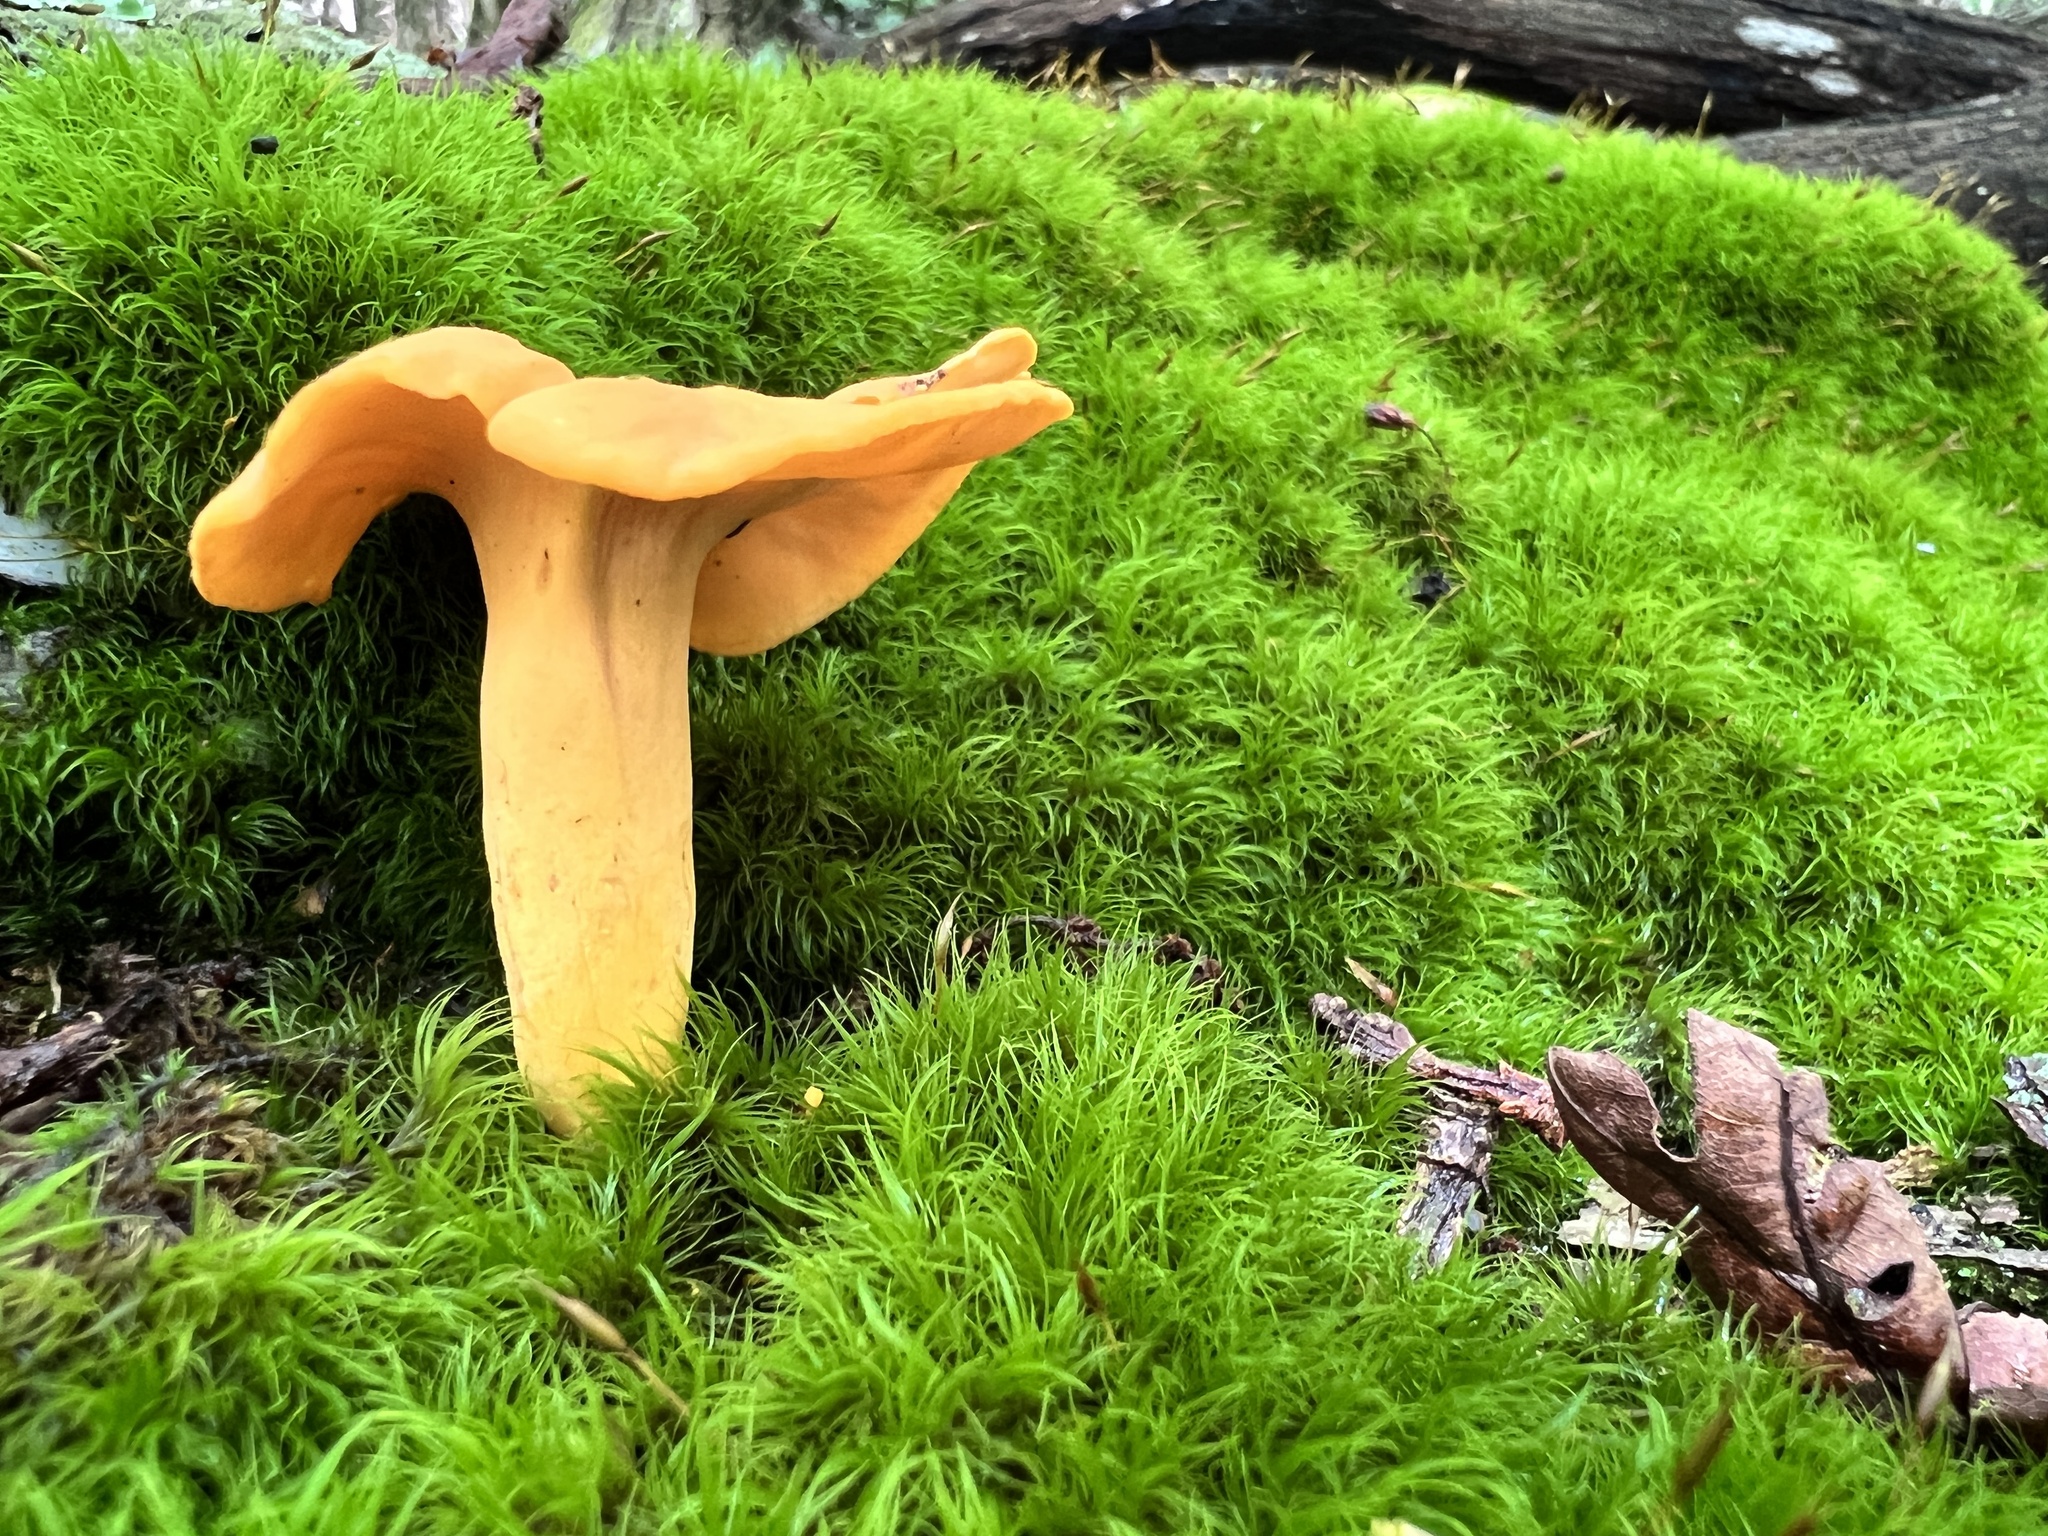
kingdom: Fungi
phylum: Basidiomycota
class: Agaricomycetes
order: Cantharellales
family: Hydnaceae
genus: Cantharellus
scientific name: Cantharellus lateritius
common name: Smooth chanterelle
